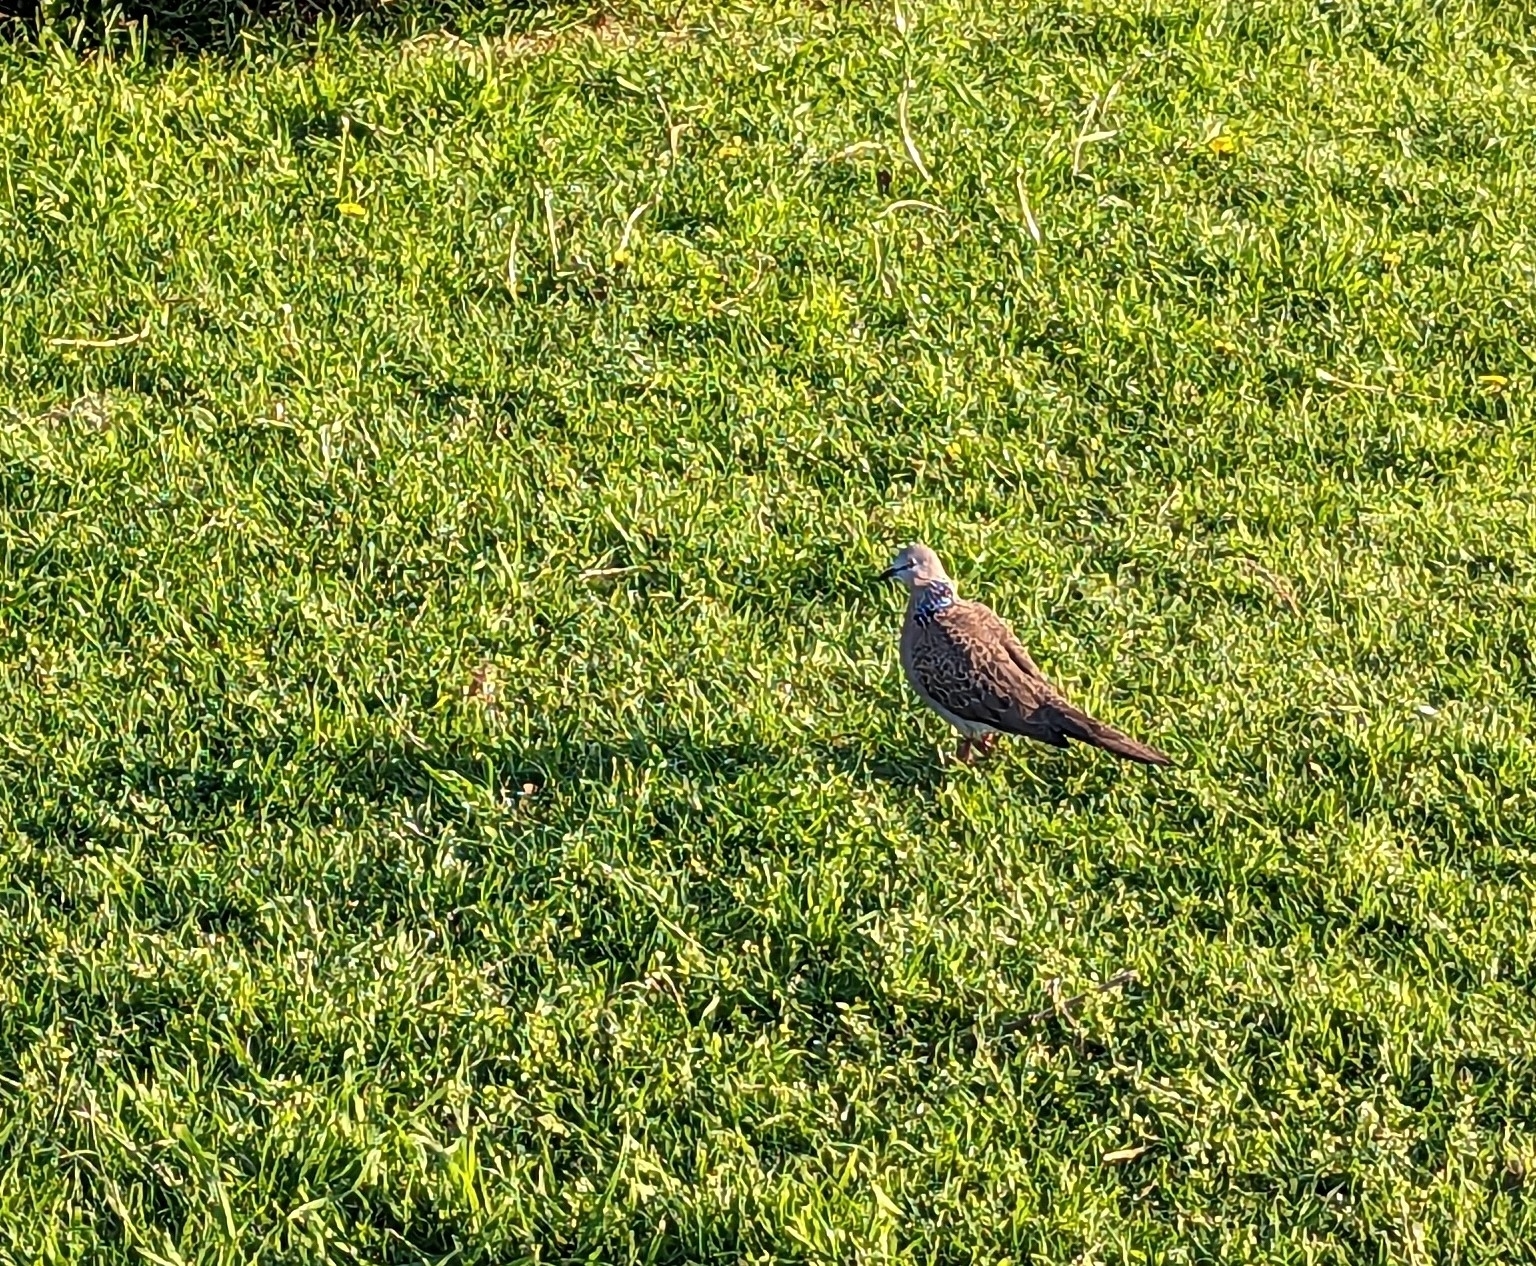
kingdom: Animalia
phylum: Chordata
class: Aves
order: Columbiformes
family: Columbidae
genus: Spilopelia
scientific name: Spilopelia chinensis
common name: Spotted dove
